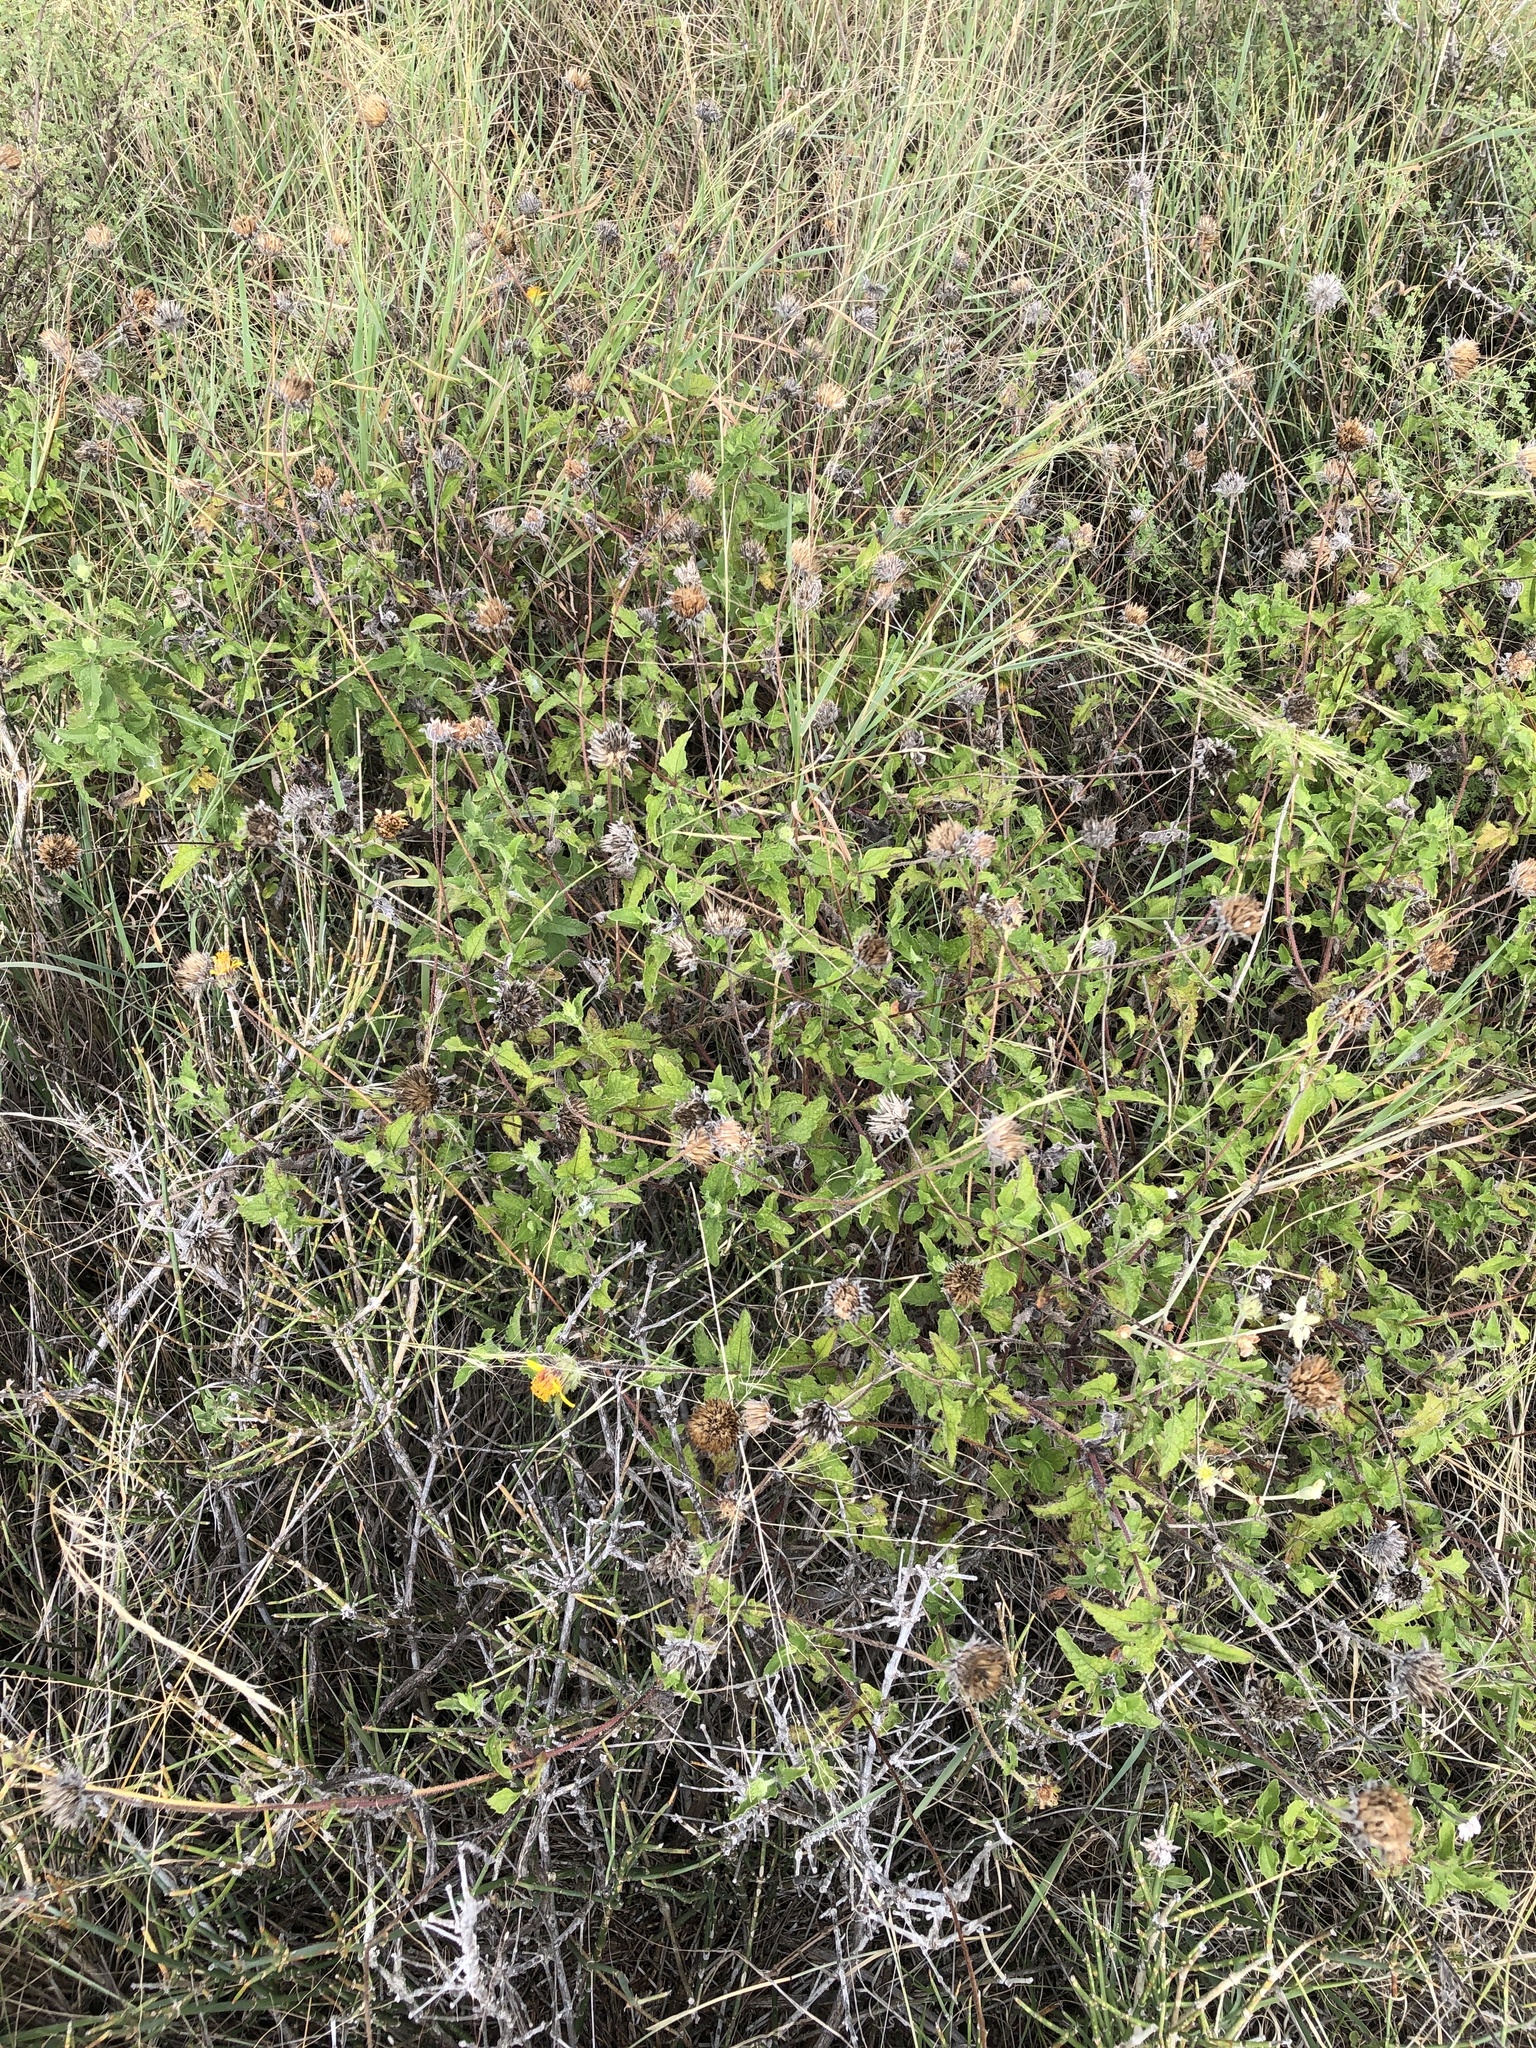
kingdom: Plantae
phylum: Tracheophyta
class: Magnoliopsida
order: Asterales
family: Asteraceae
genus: Simsia
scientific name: Simsia calva
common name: Awnless bush-sunflower
